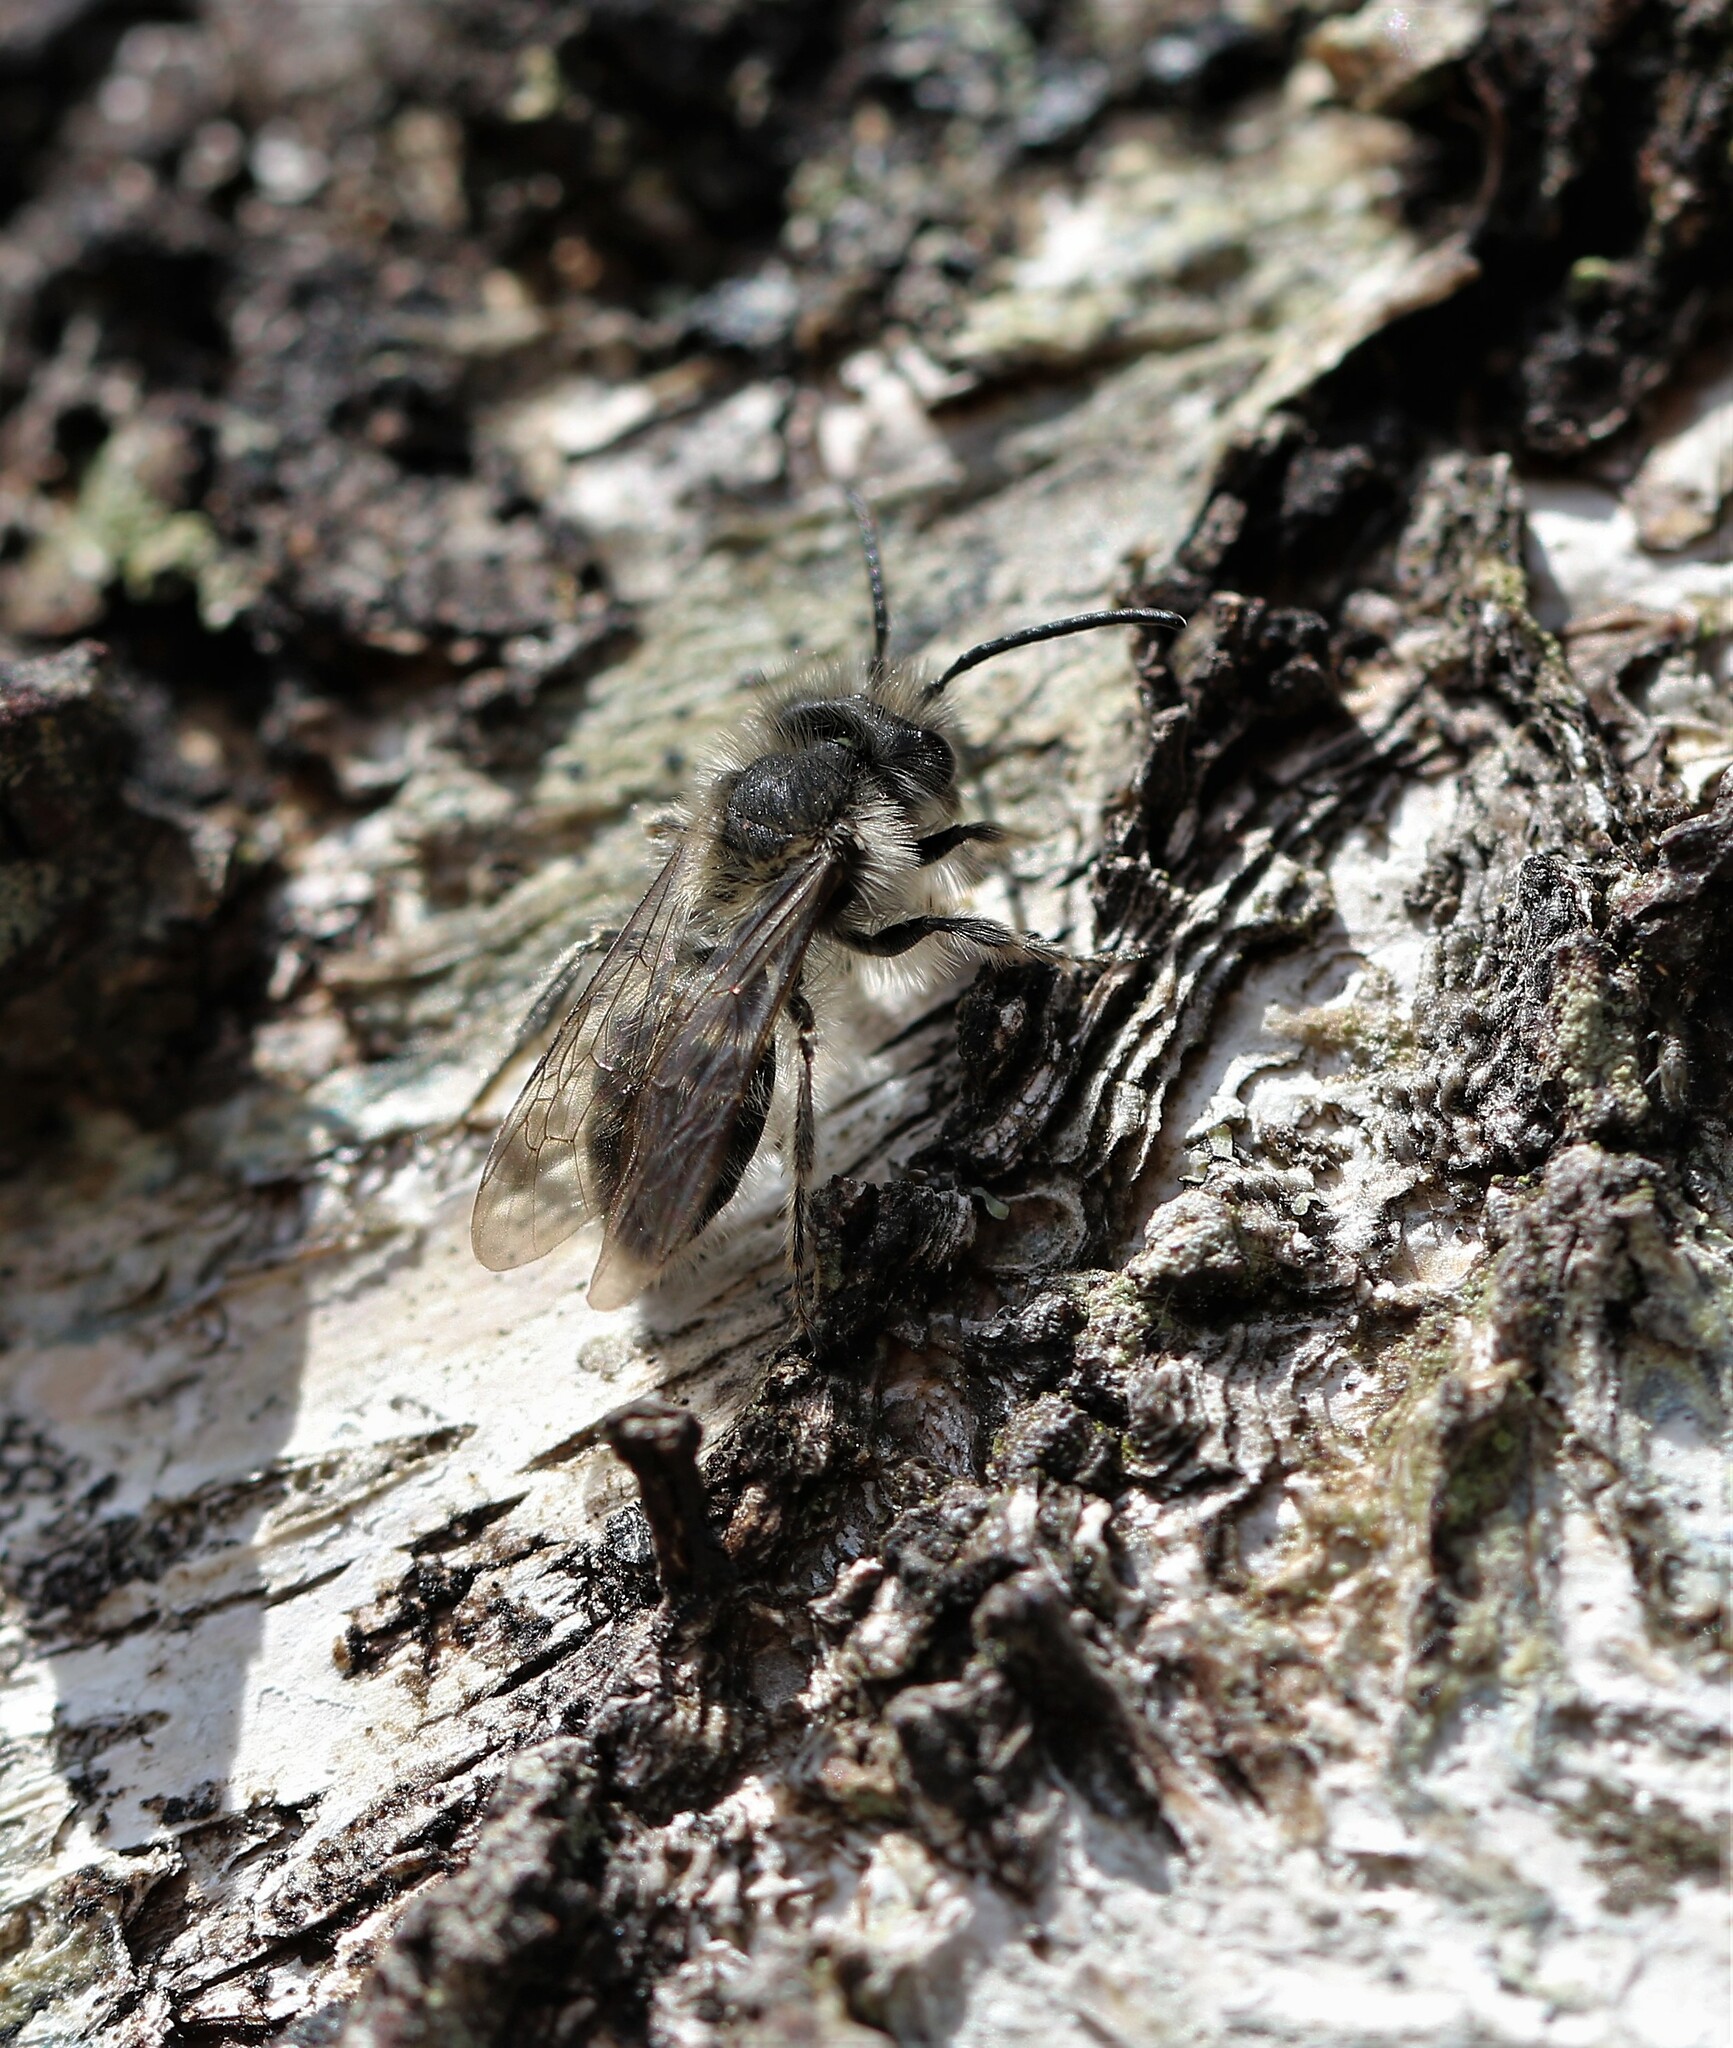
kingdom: Animalia
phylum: Arthropoda
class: Insecta
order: Hymenoptera
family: Andrenidae
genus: Andrena
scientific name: Andrena frigida
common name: Frigid mining bee
